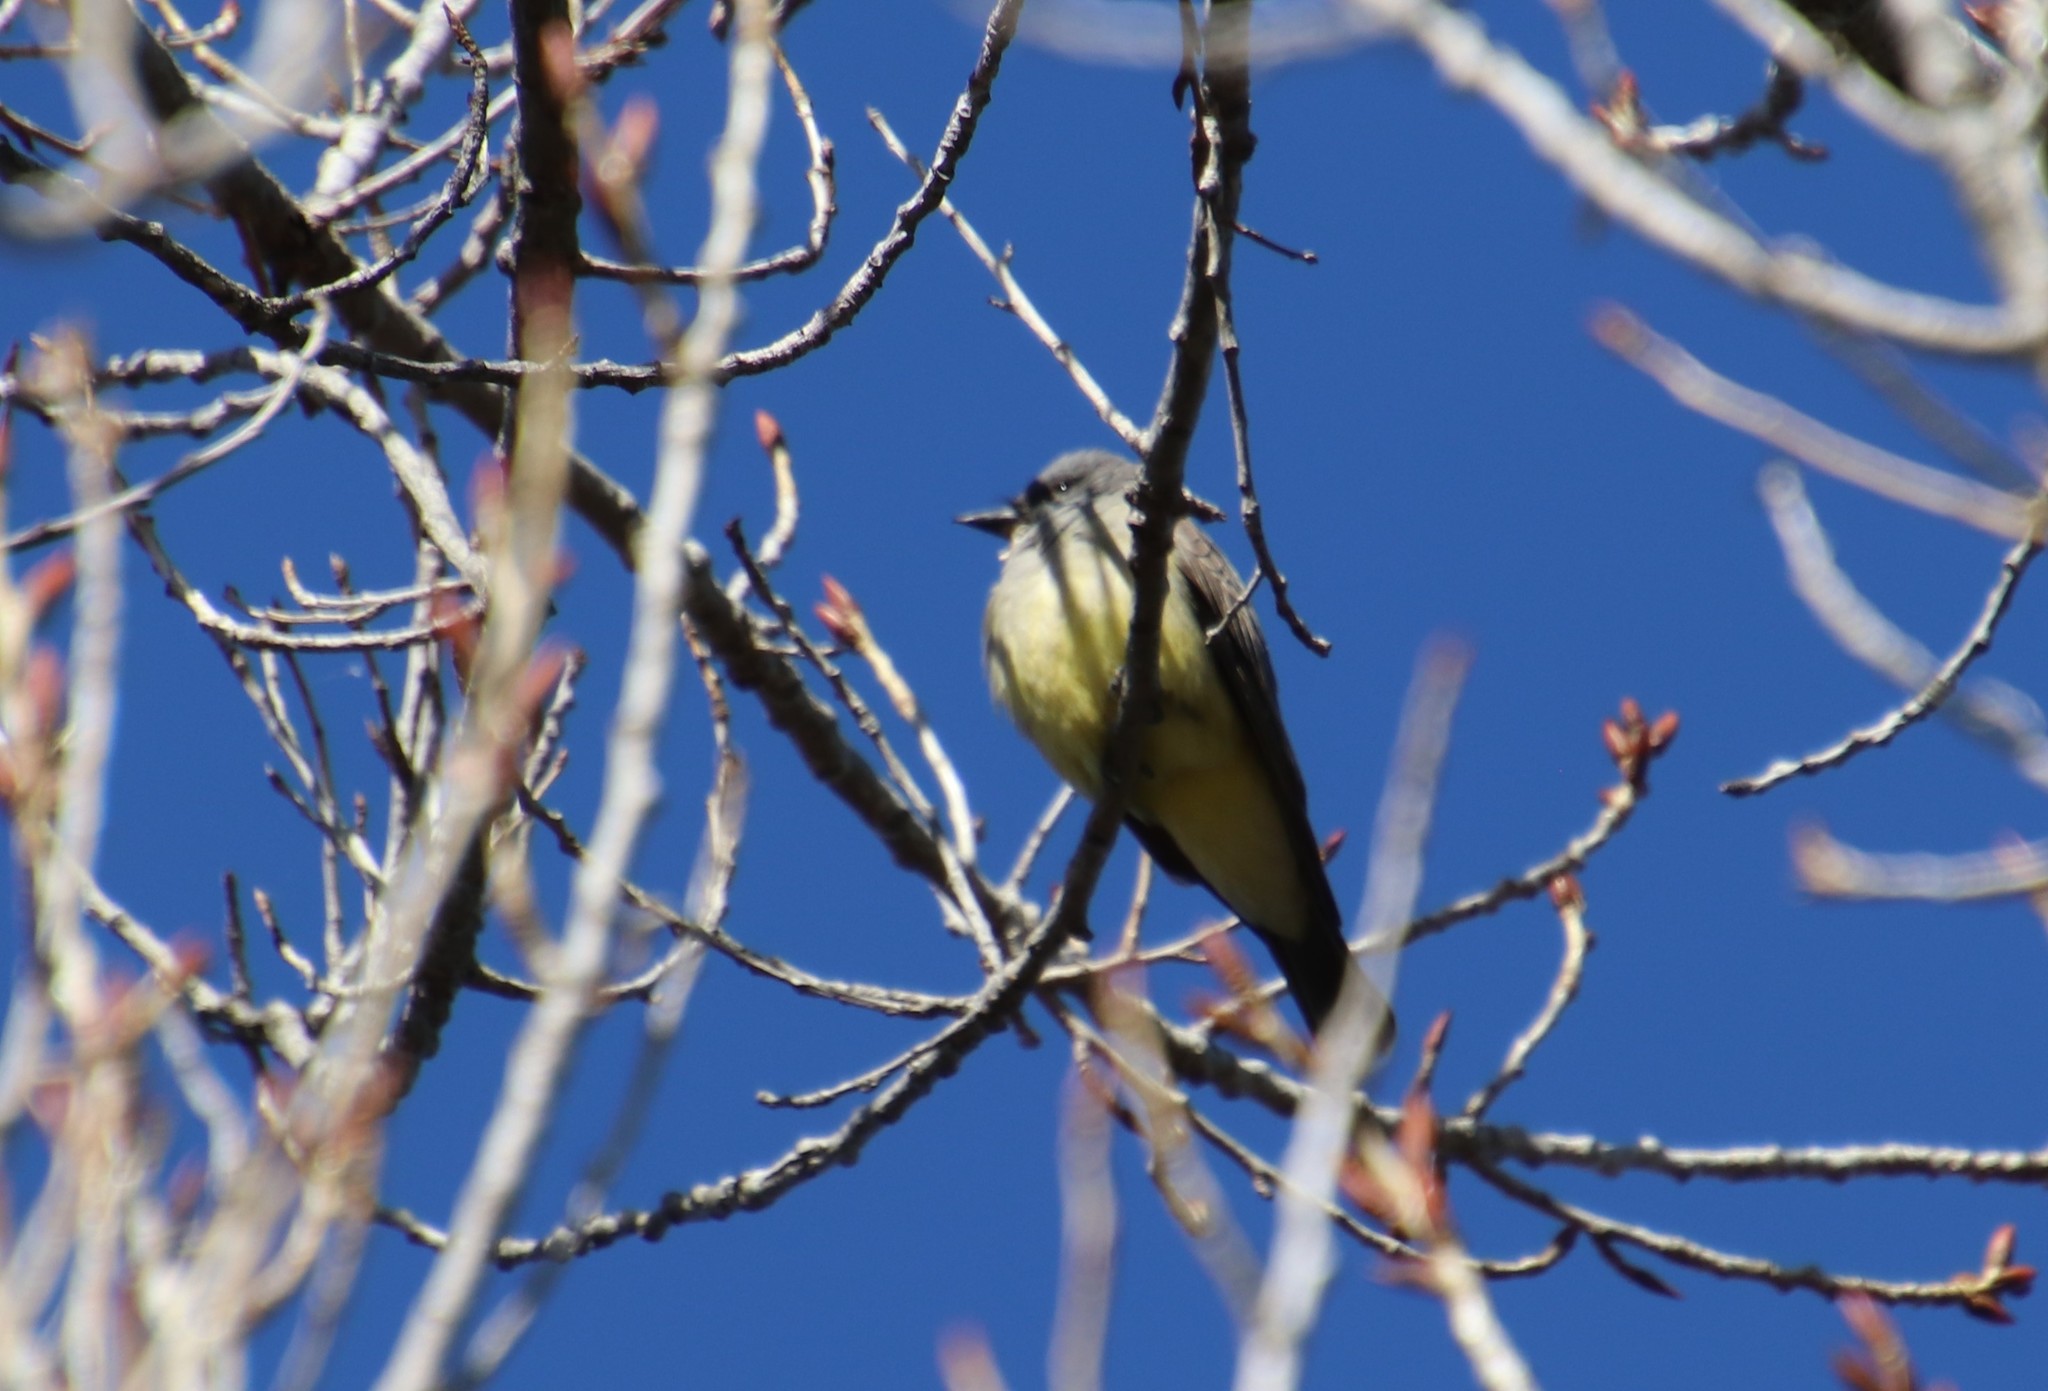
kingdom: Animalia
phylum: Chordata
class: Aves
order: Passeriformes
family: Tyrannidae
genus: Tyrannus
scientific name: Tyrannus vociferans
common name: Cassin's kingbird
